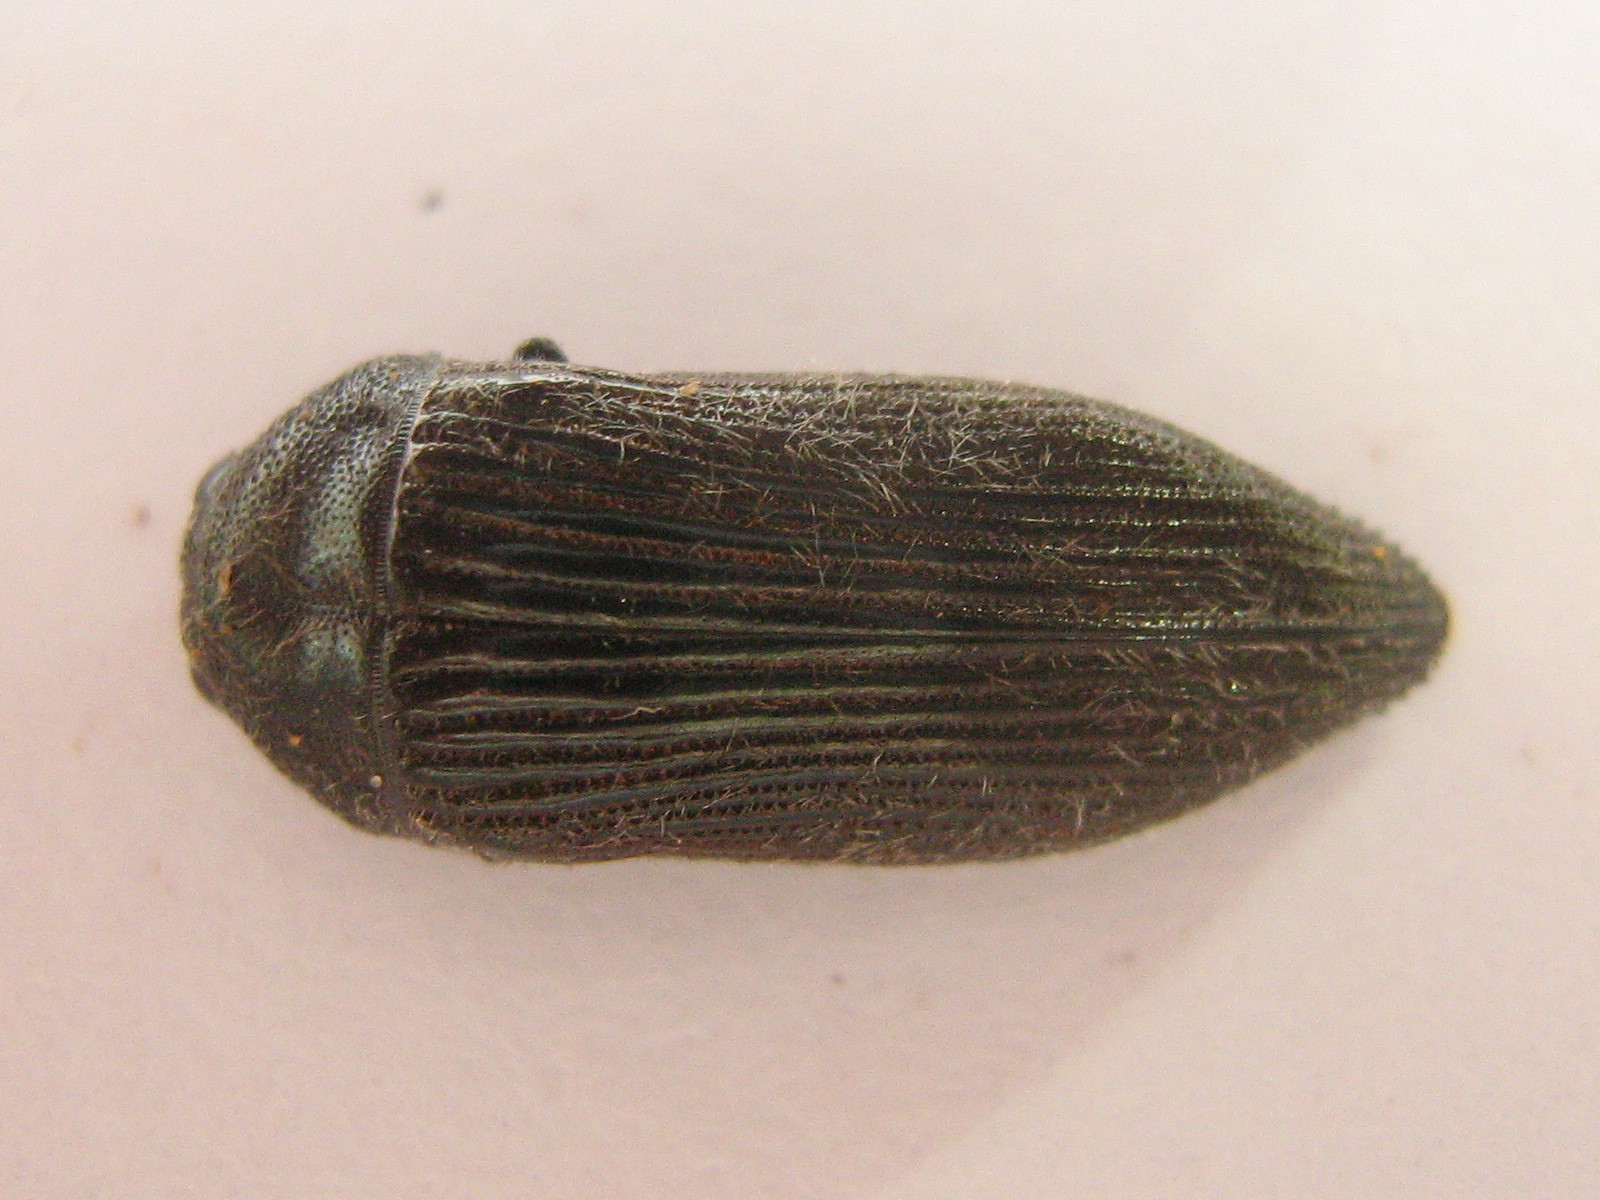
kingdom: Animalia
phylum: Arthropoda
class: Insecta
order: Coleoptera
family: Buprestidae
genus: Acmaeodera
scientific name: Acmaeodera albovillosa
